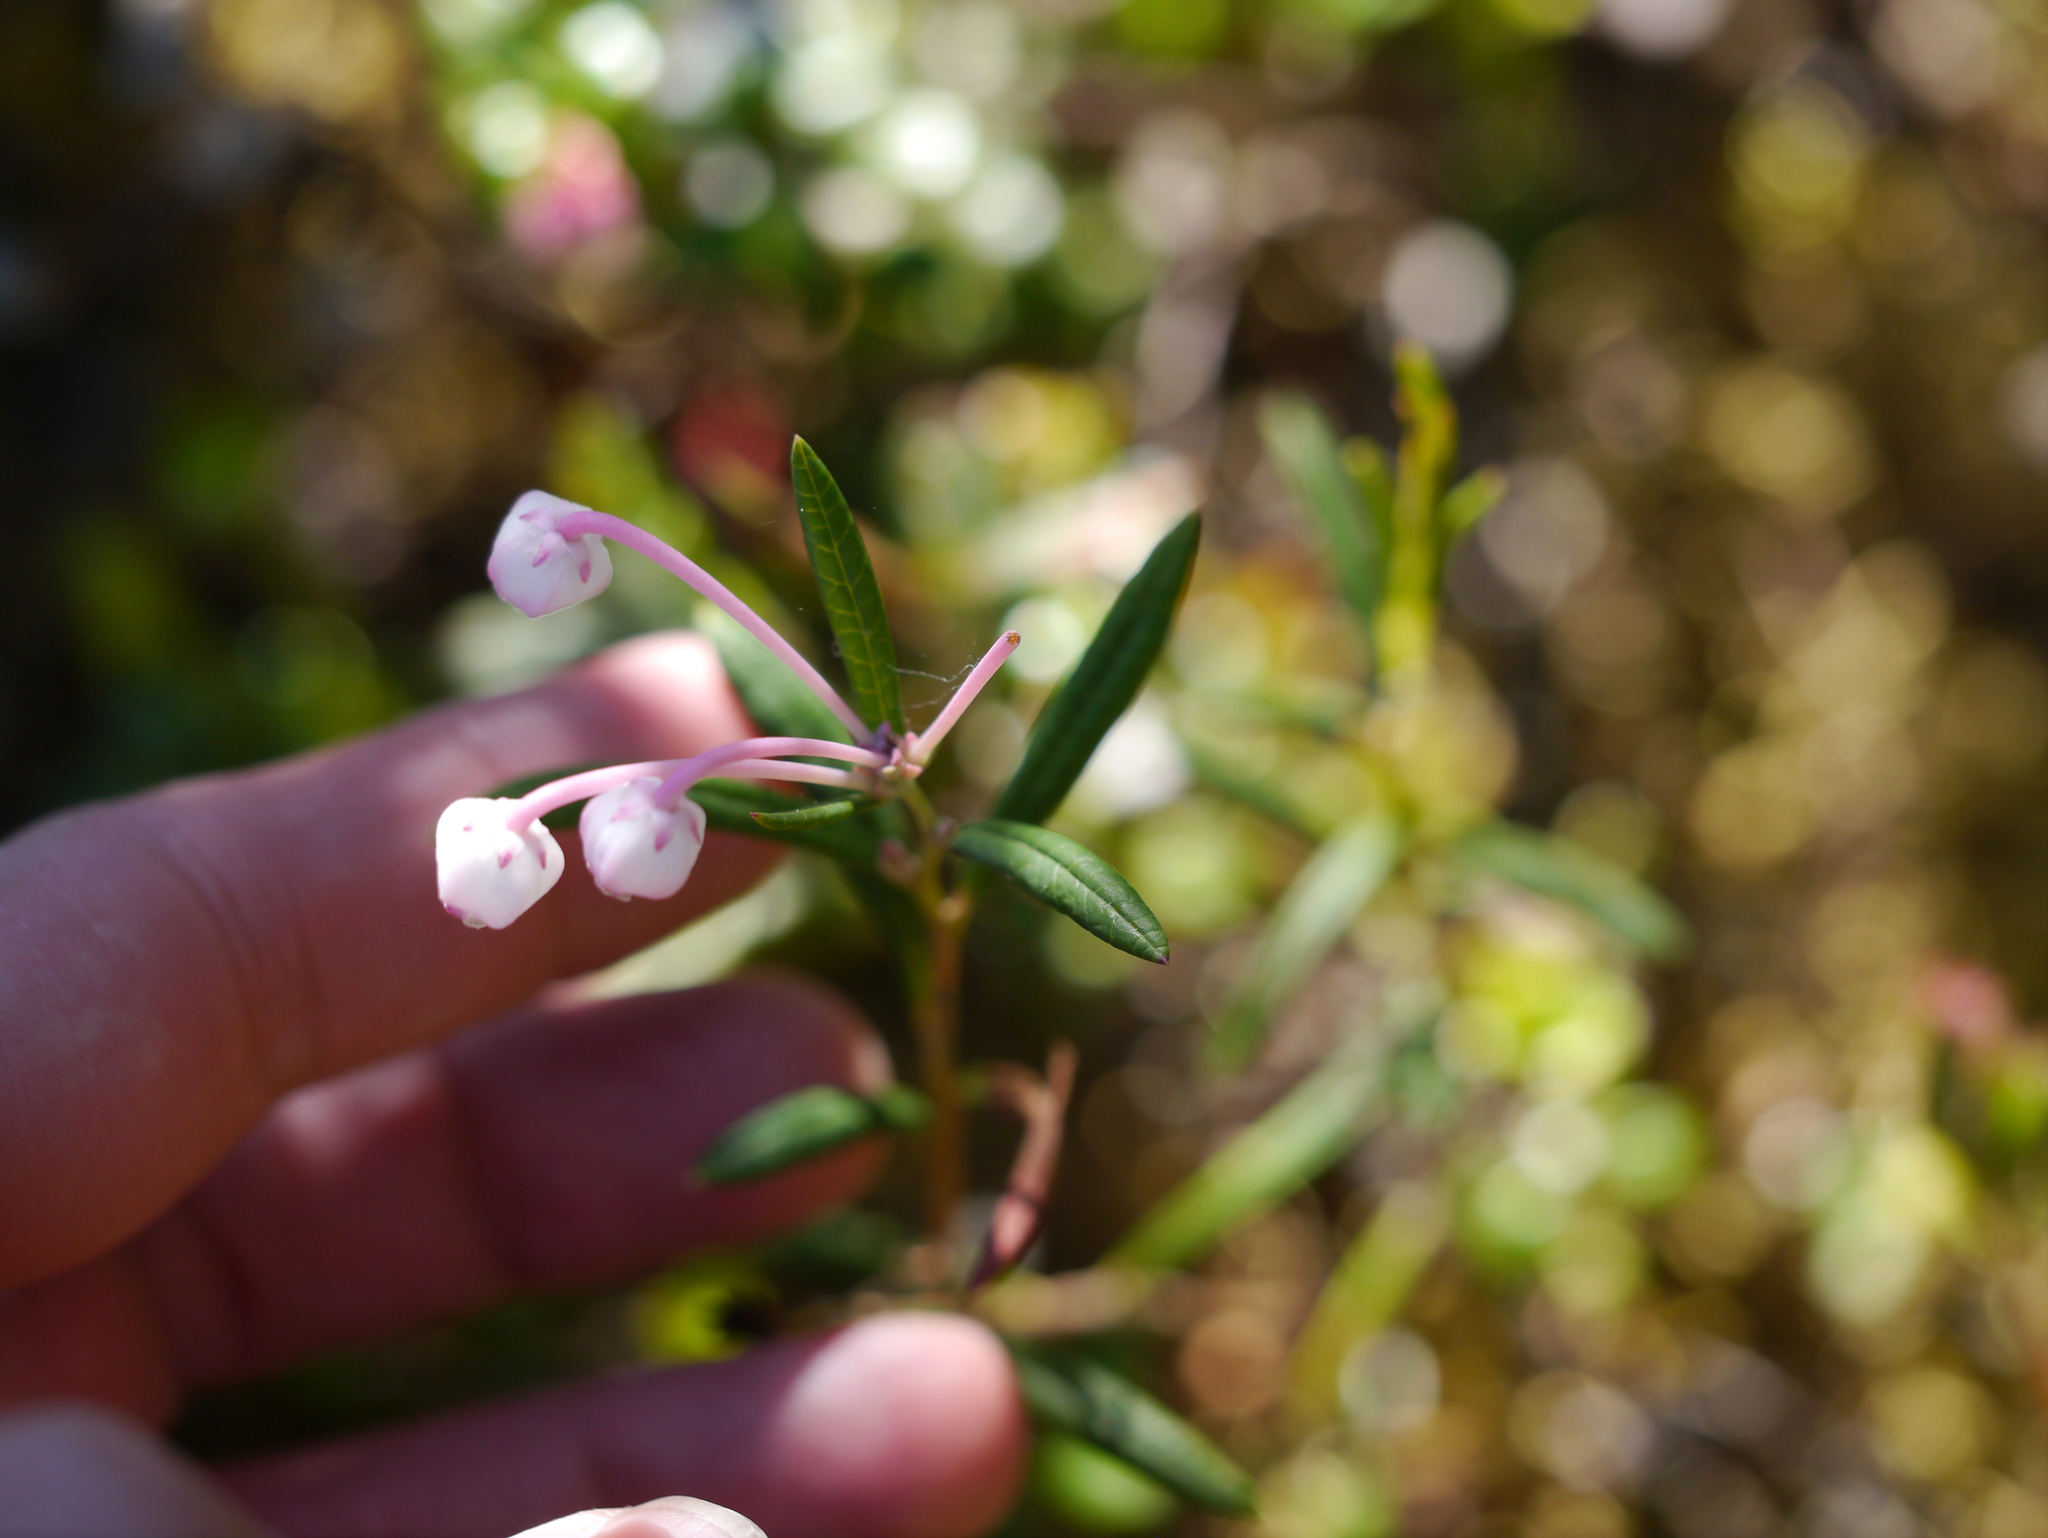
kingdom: Plantae
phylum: Tracheophyta
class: Magnoliopsida
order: Ericales
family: Ericaceae
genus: Andromeda
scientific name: Andromeda polifolia
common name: Bog-rosemary
